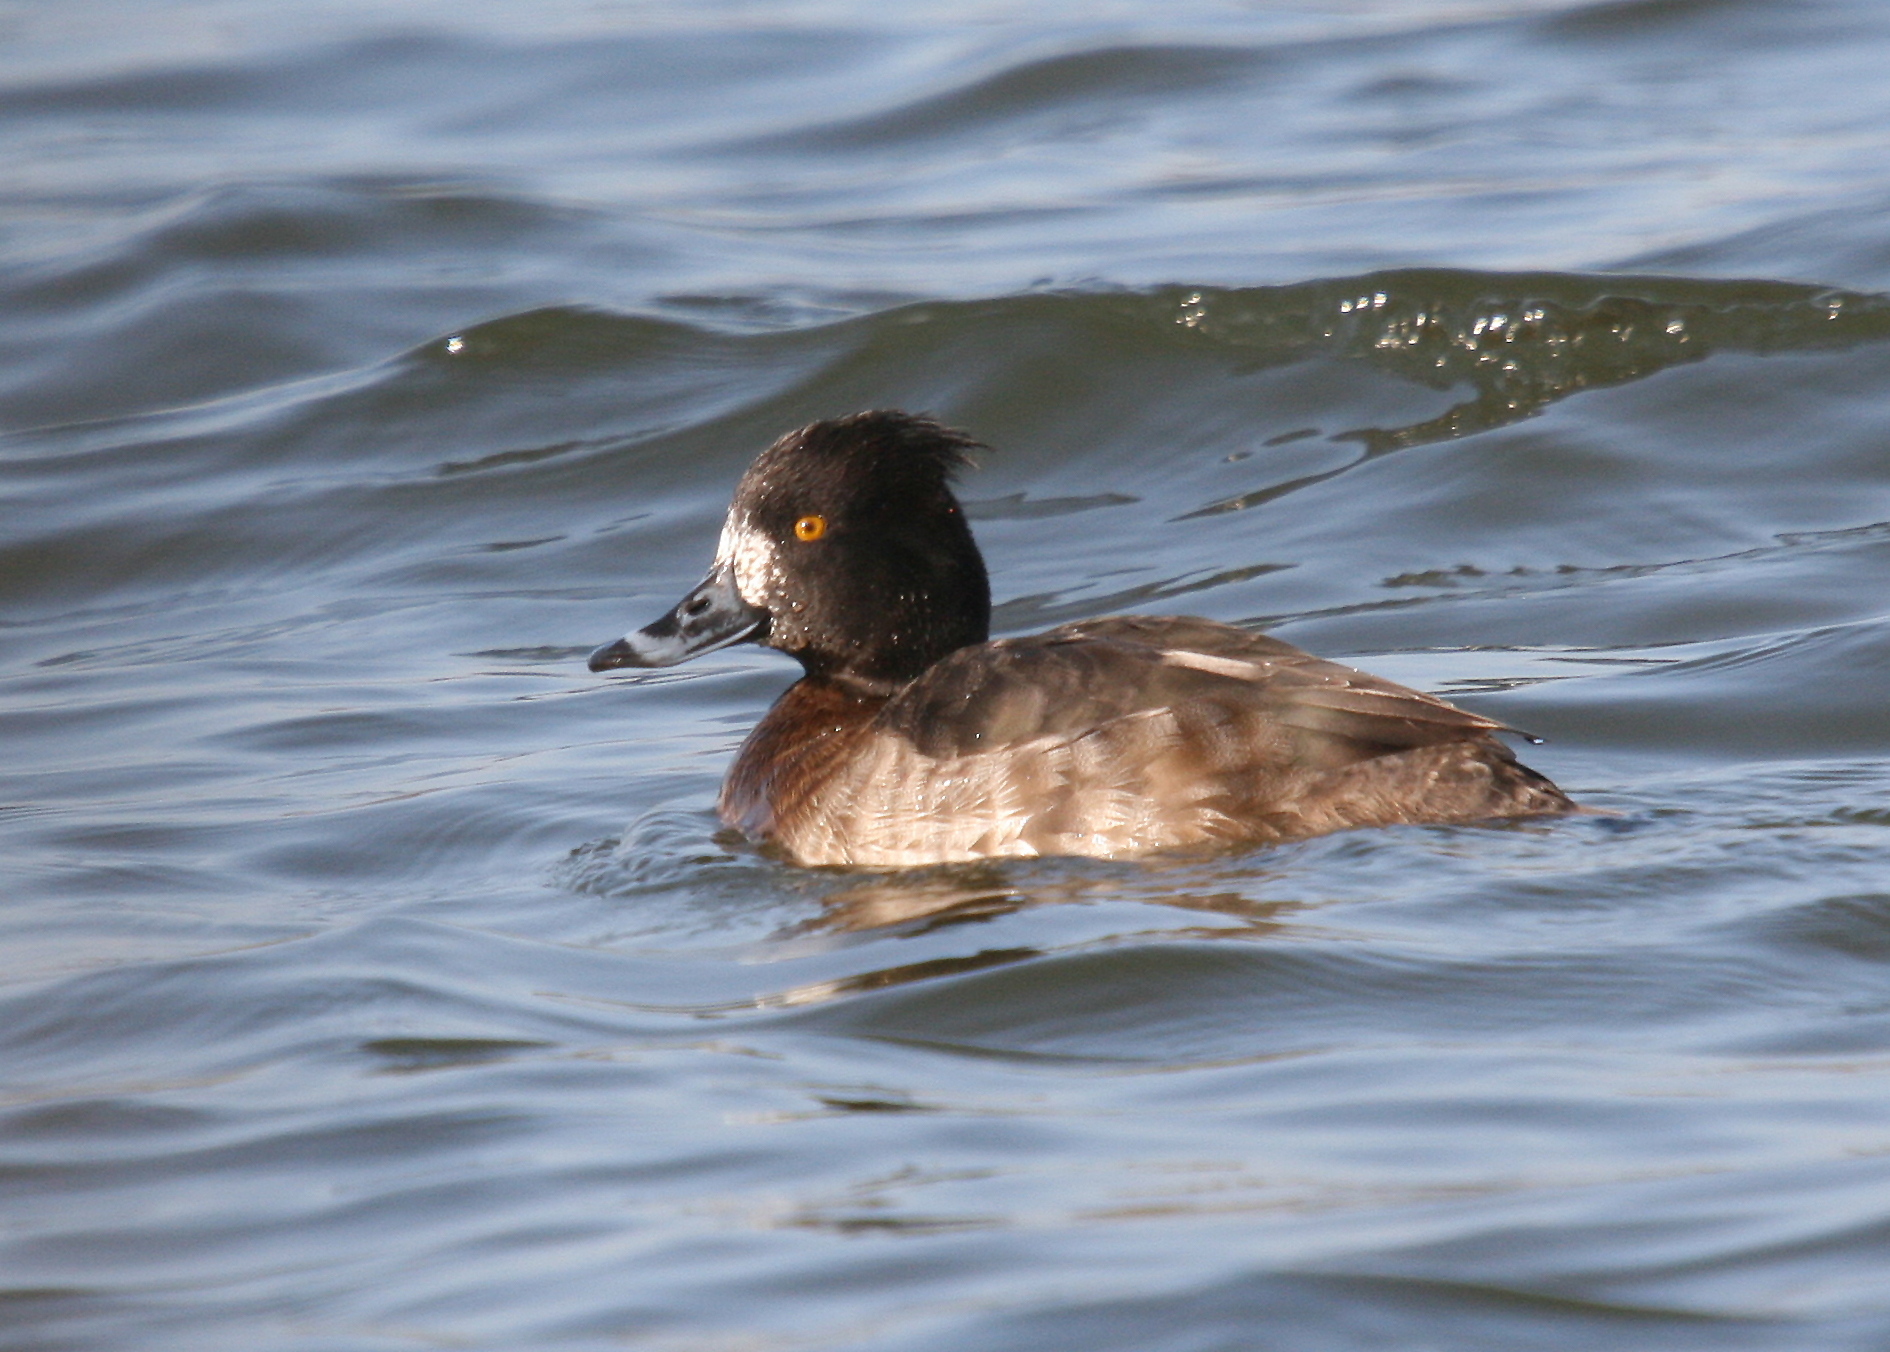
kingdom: Animalia
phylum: Chordata
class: Aves
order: Anseriformes
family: Anatidae
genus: Aythya
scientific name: Aythya fuligula
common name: Tufted duck
